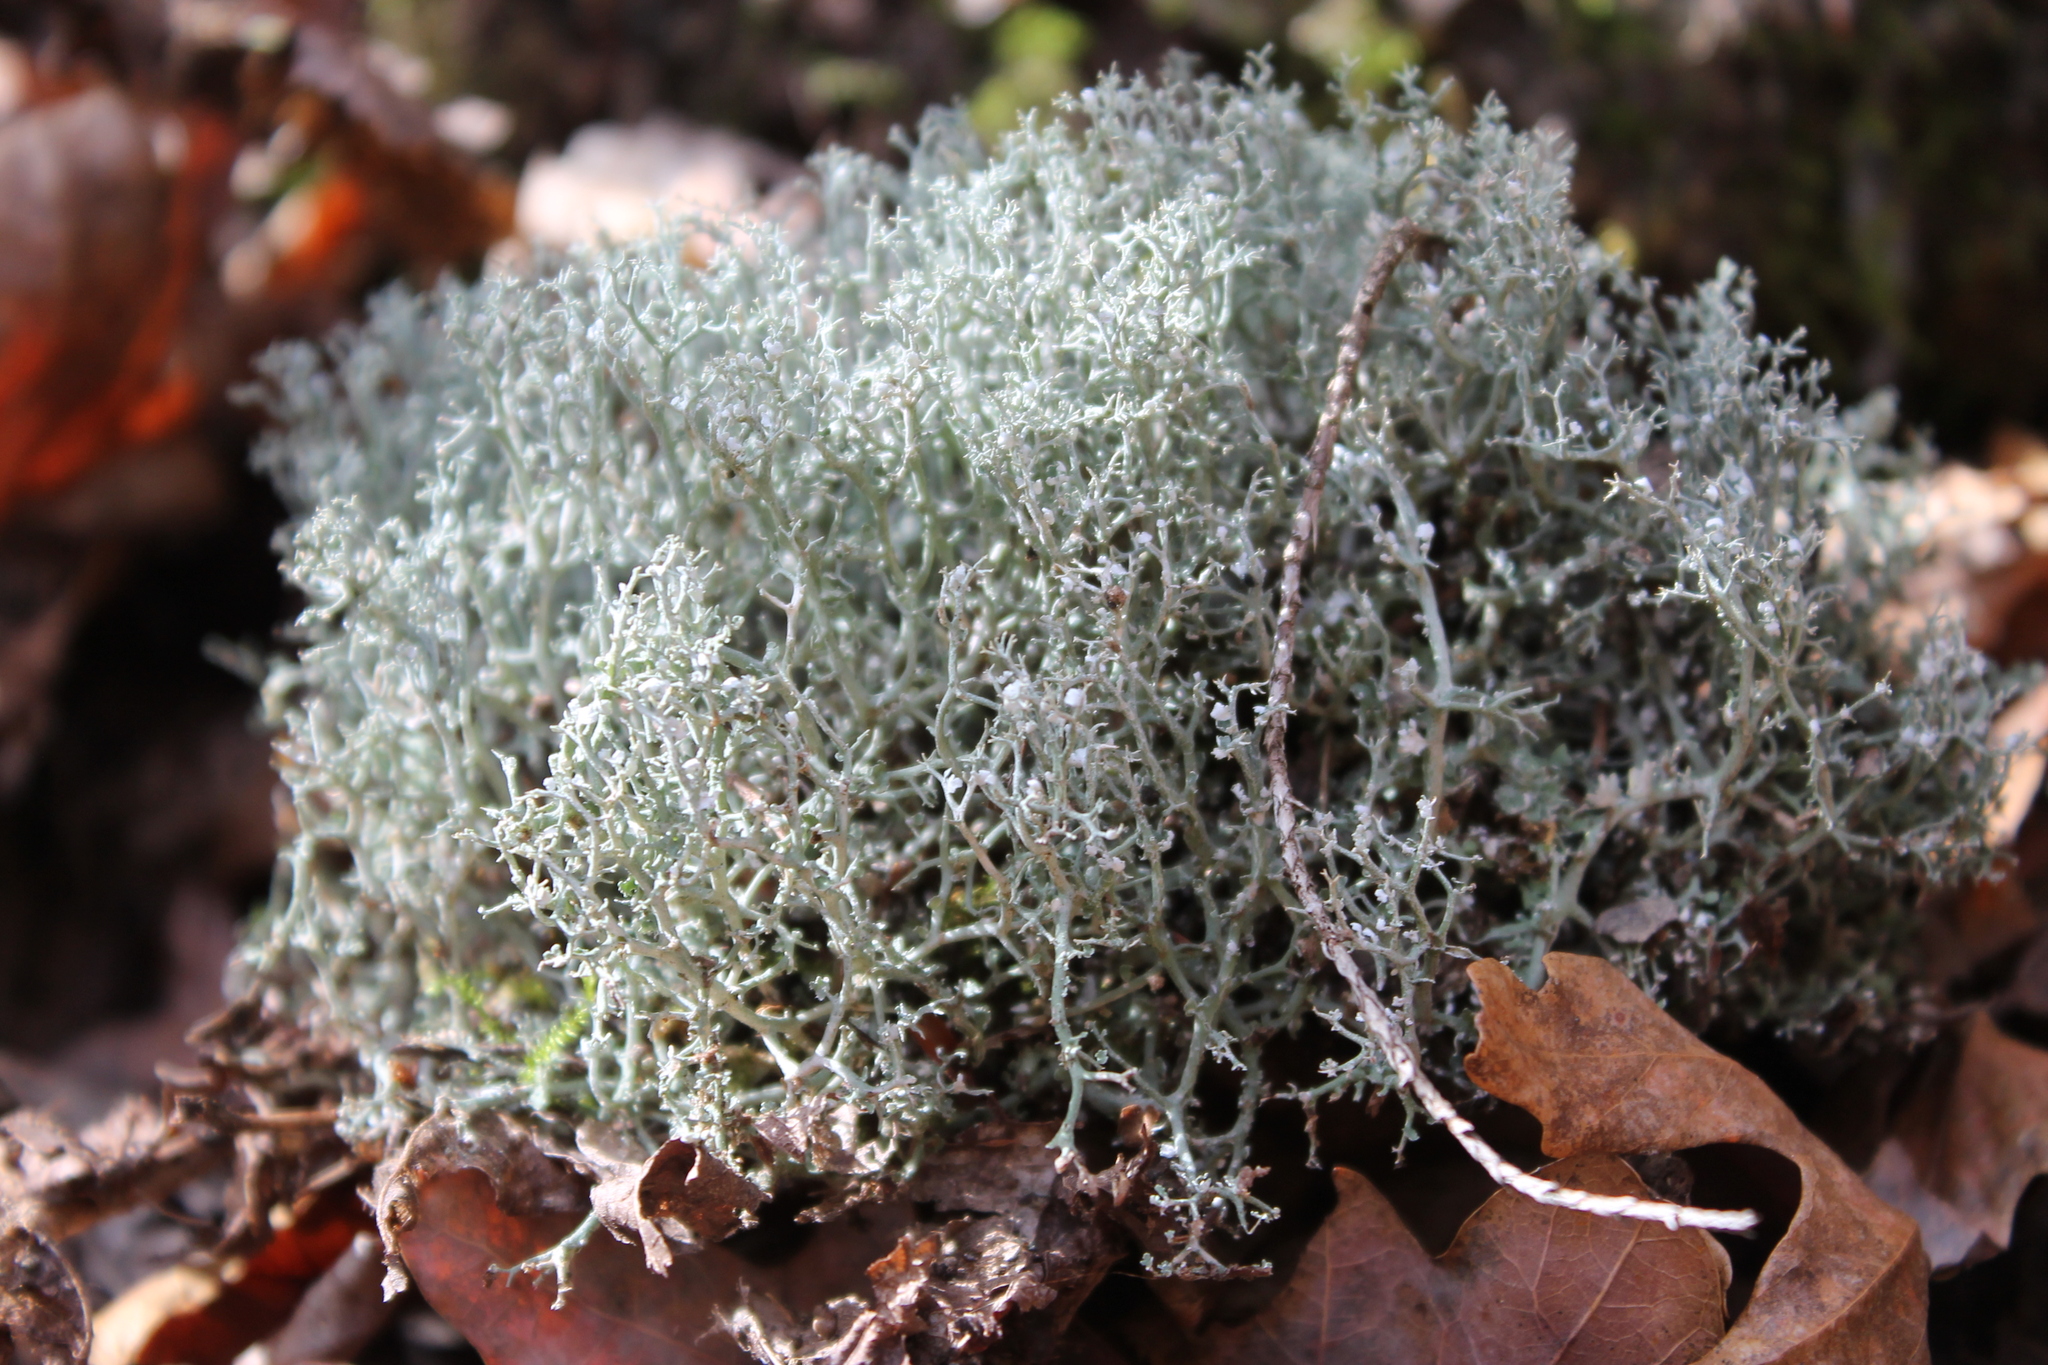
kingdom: Fungi
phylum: Ascomycota
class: Lecanoromycetes
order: Lecanorales
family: Cladoniaceae
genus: Cladonia
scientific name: Cladonia furcata
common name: Many-forked cladonia
